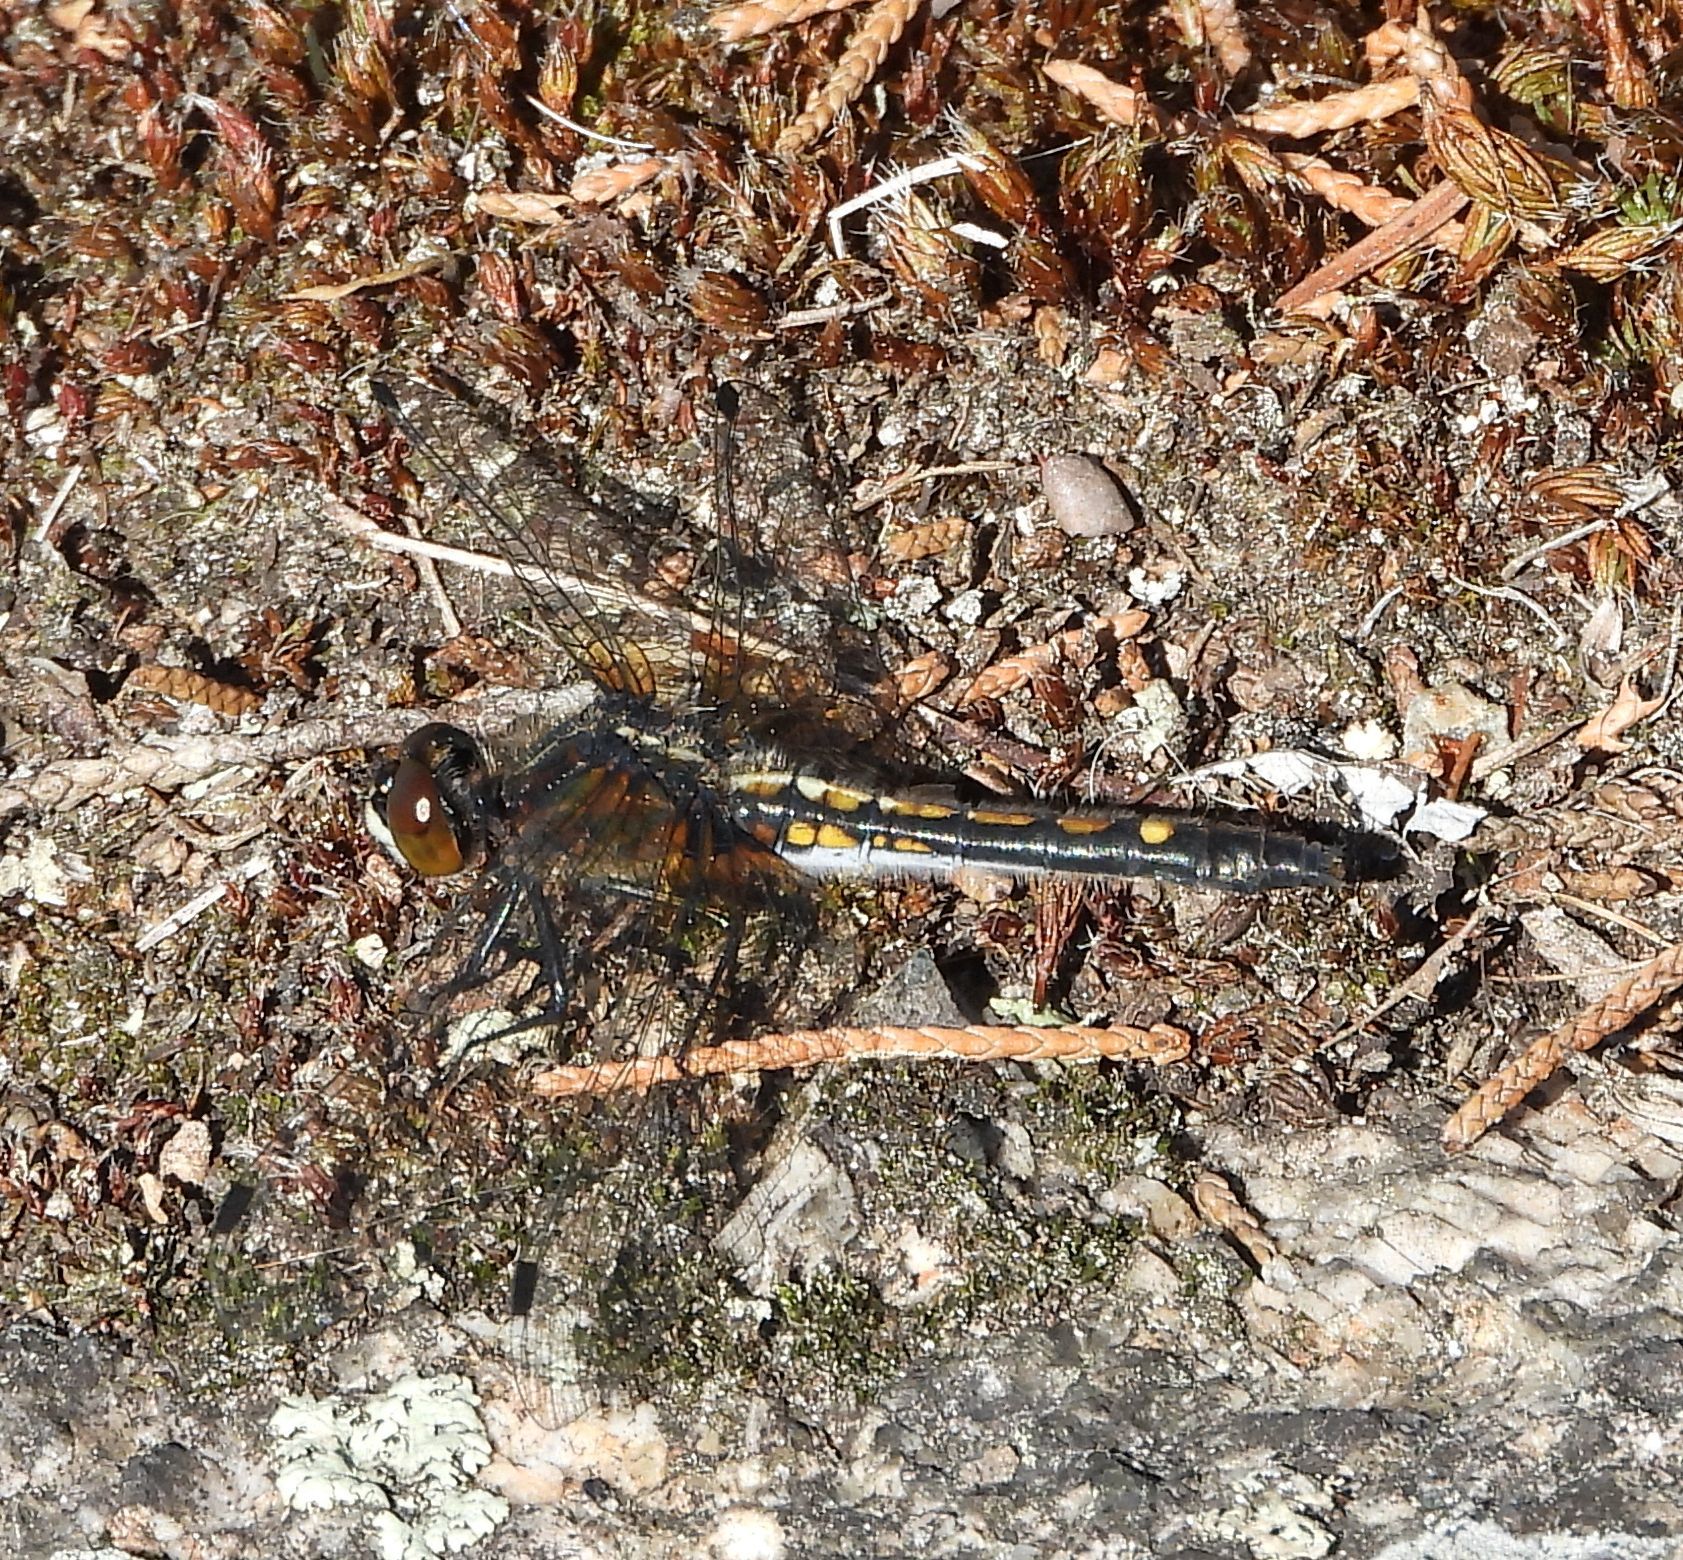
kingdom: Animalia
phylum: Arthropoda
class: Insecta
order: Odonata
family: Libellulidae
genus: Leucorrhinia
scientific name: Leucorrhinia intacta
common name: Dot-tailed whiteface
